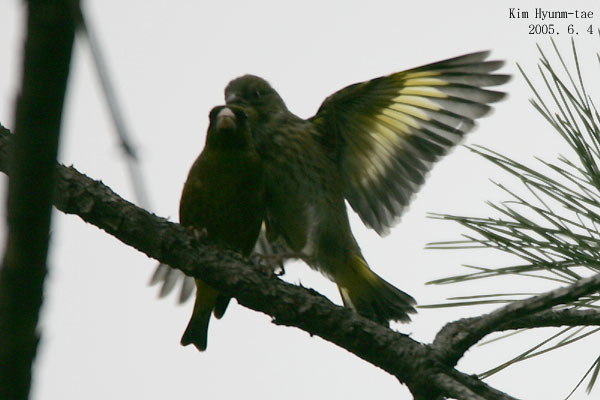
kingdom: Plantae
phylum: Tracheophyta
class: Liliopsida
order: Poales
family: Poaceae
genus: Chloris
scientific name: Chloris sinica
